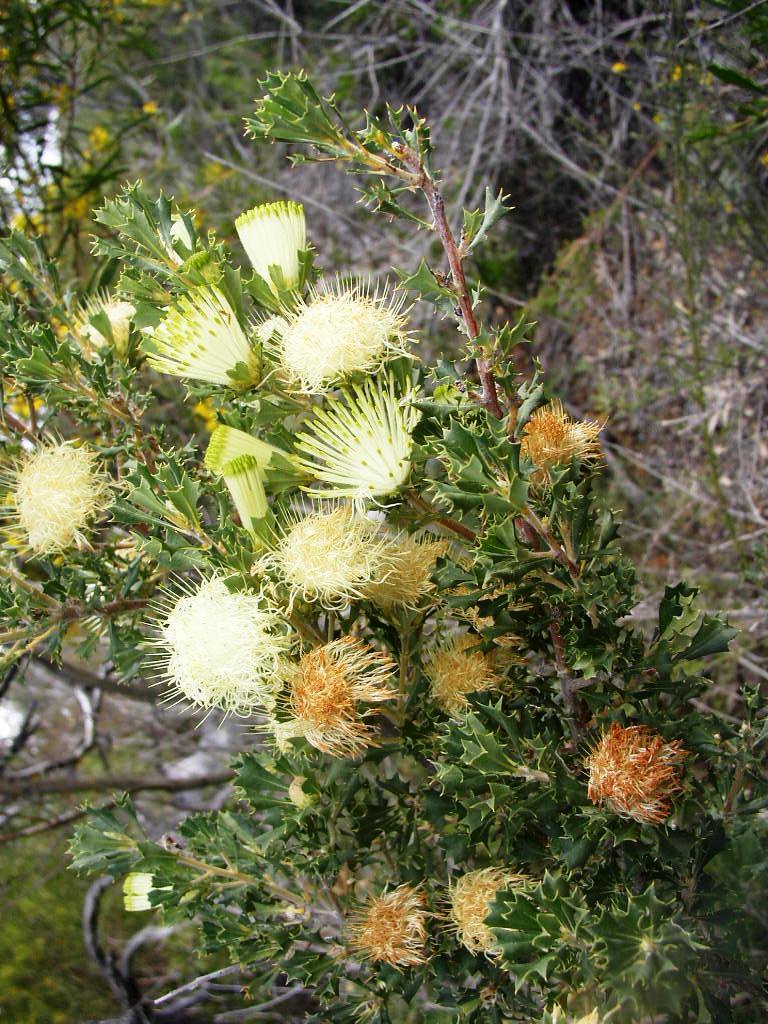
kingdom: Plantae
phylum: Tracheophyta
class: Magnoliopsida
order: Proteales
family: Proteaceae
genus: Banksia
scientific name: Banksia sessilis
